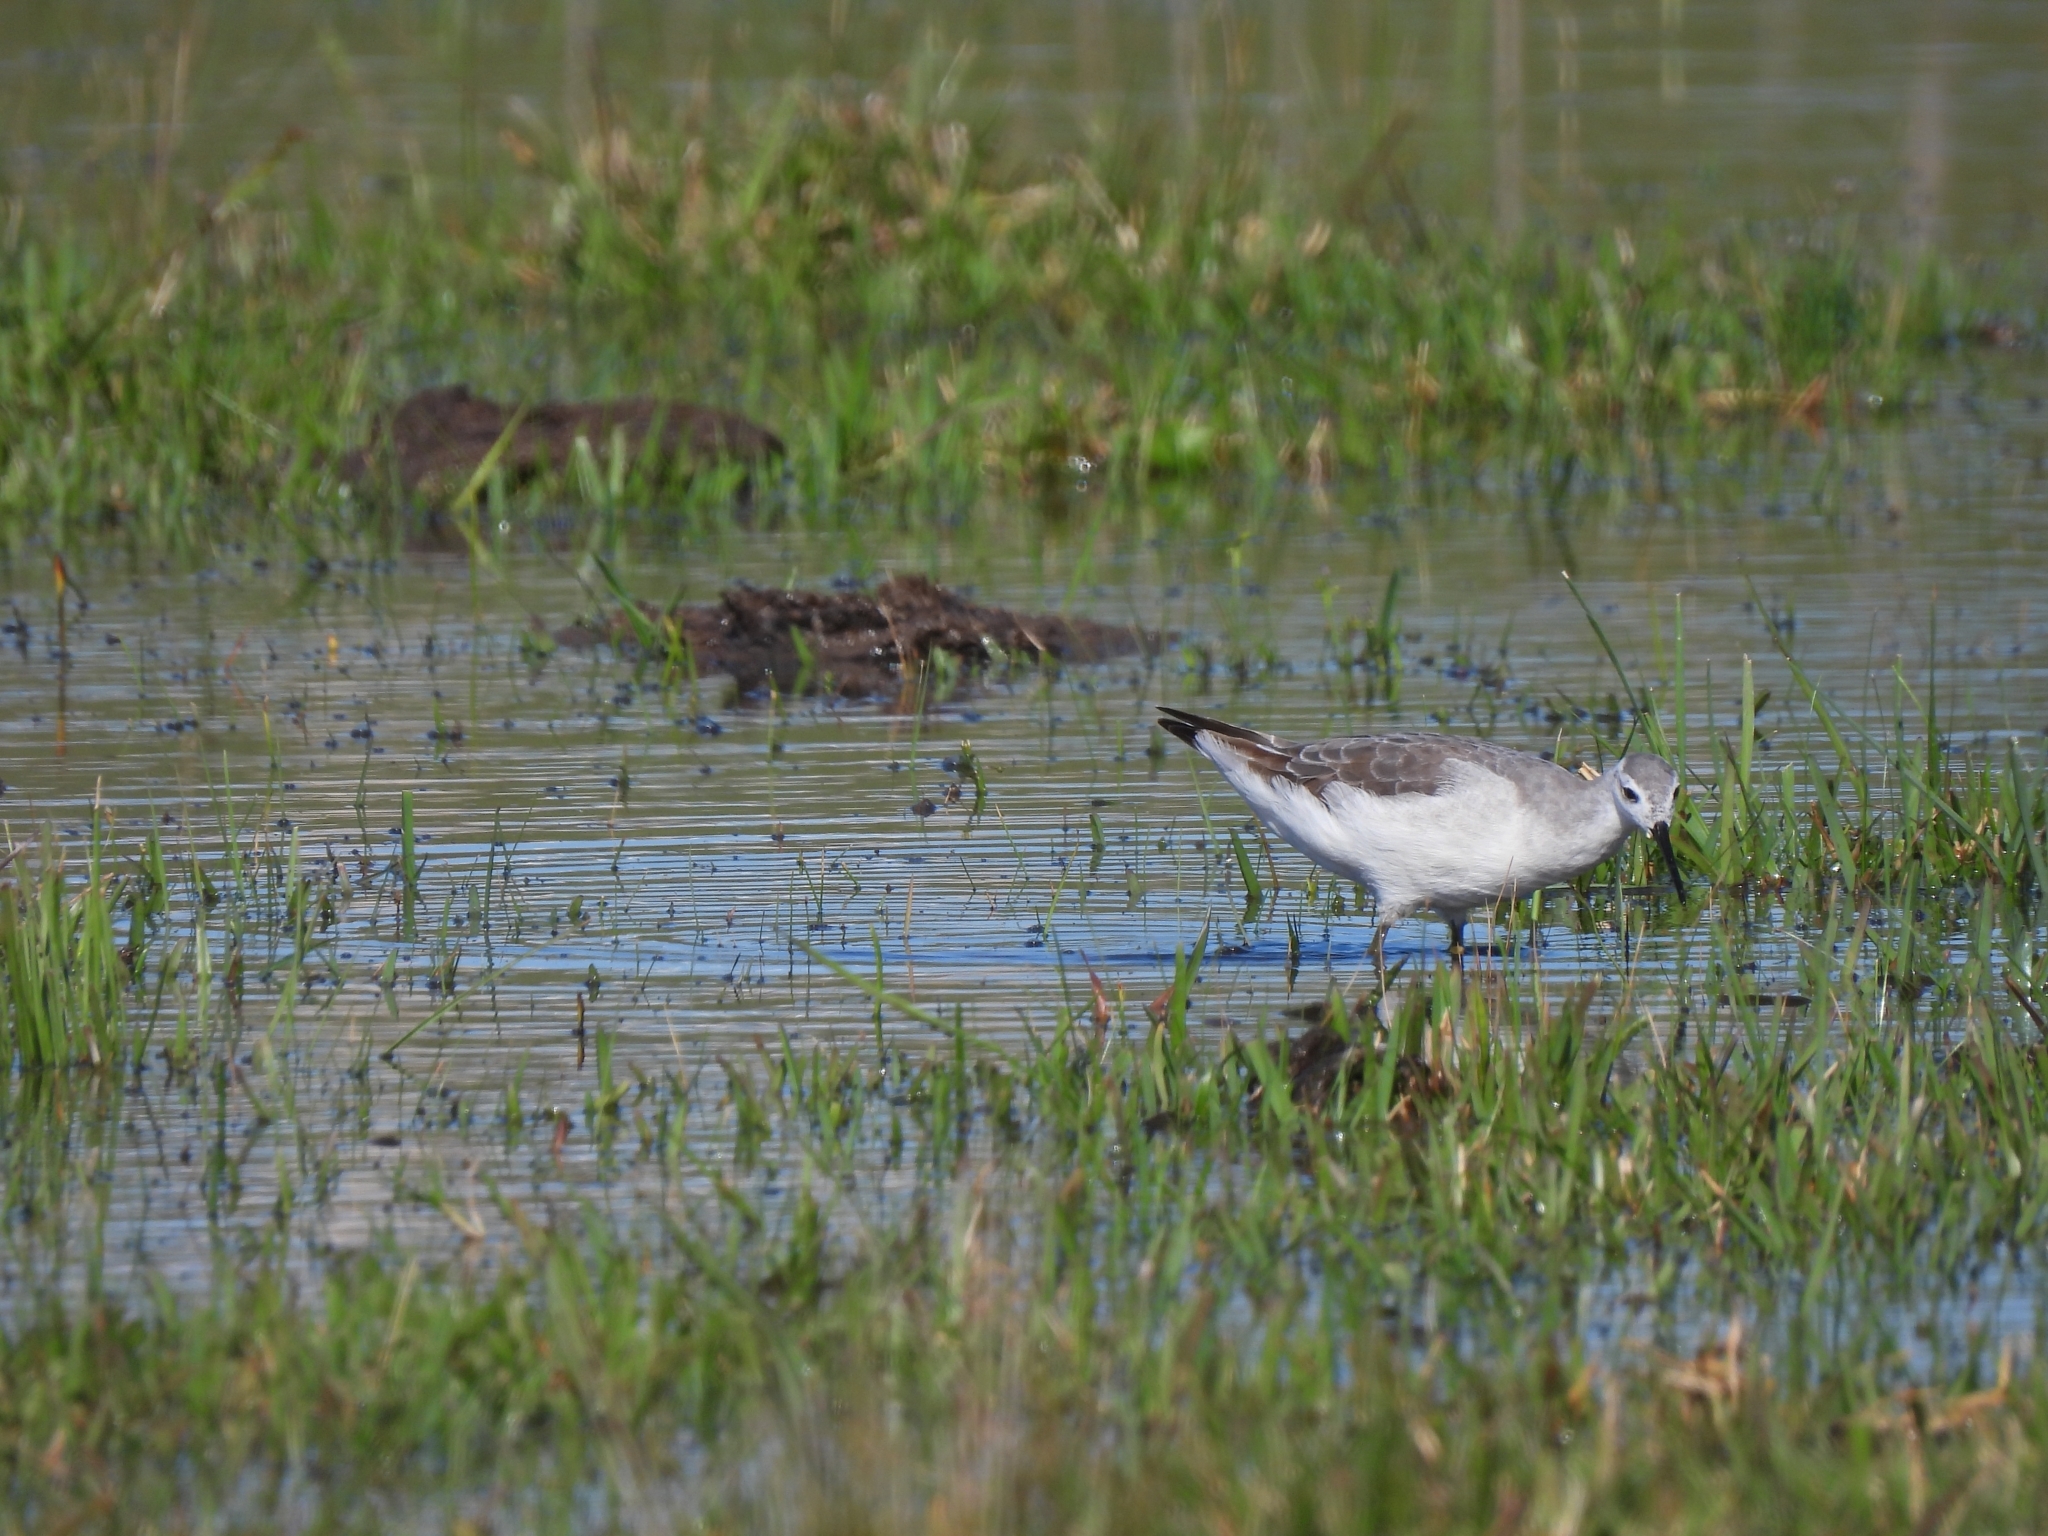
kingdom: Animalia
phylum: Chordata
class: Aves
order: Charadriiformes
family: Scolopacidae
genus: Phalaropus
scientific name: Phalaropus tricolor
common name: Wilson's phalarope
